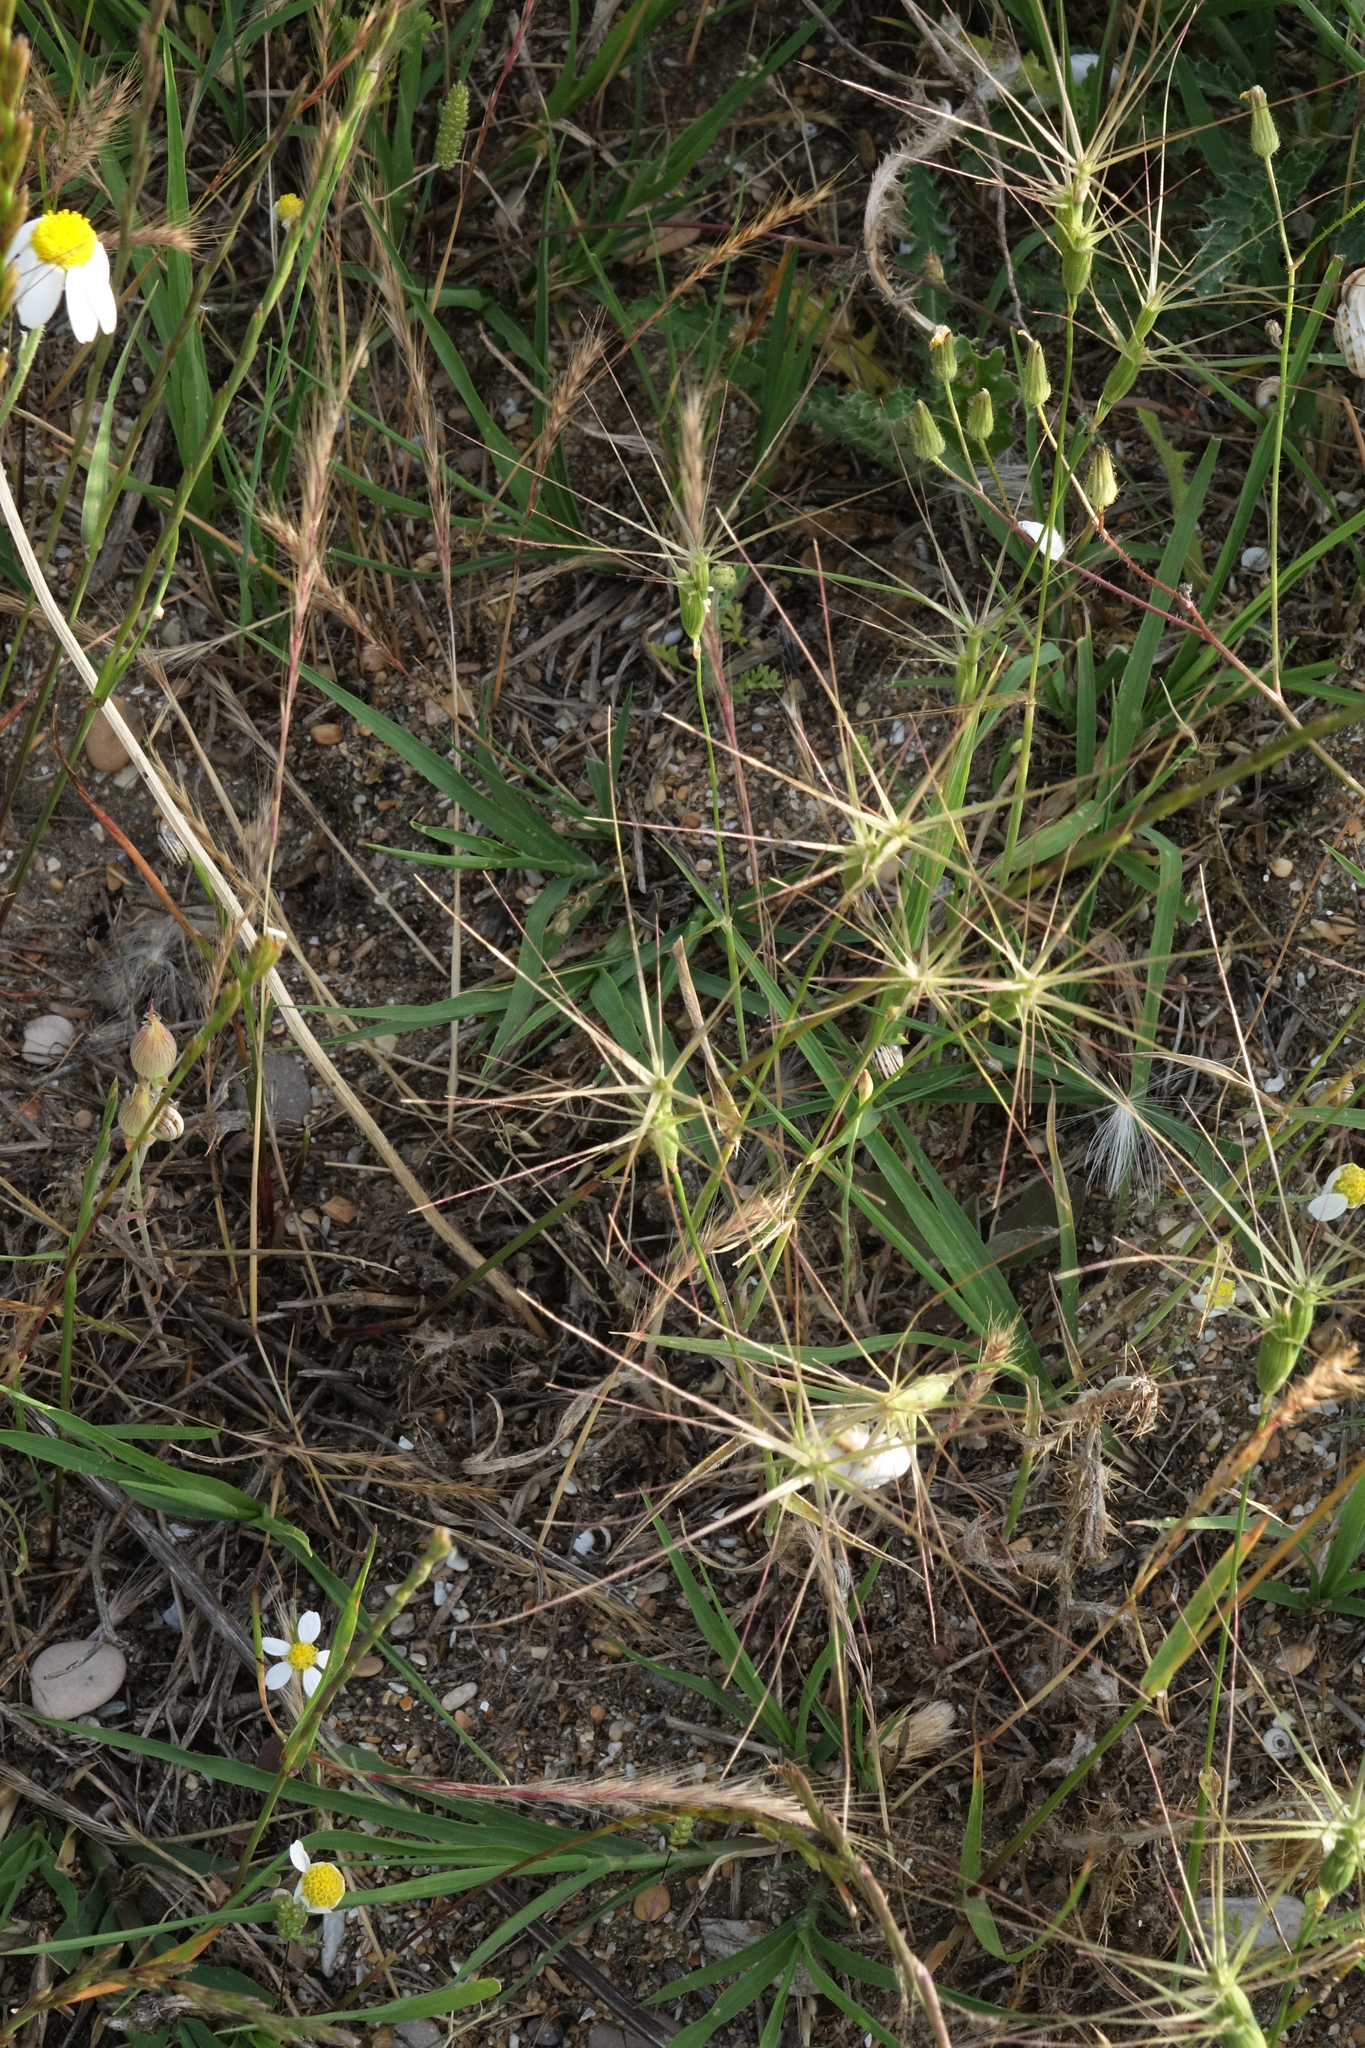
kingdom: Plantae
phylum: Tracheophyta
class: Liliopsida
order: Poales
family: Poaceae
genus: Aegilops
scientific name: Aegilops biuncialis
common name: Mediterranean aegilops
